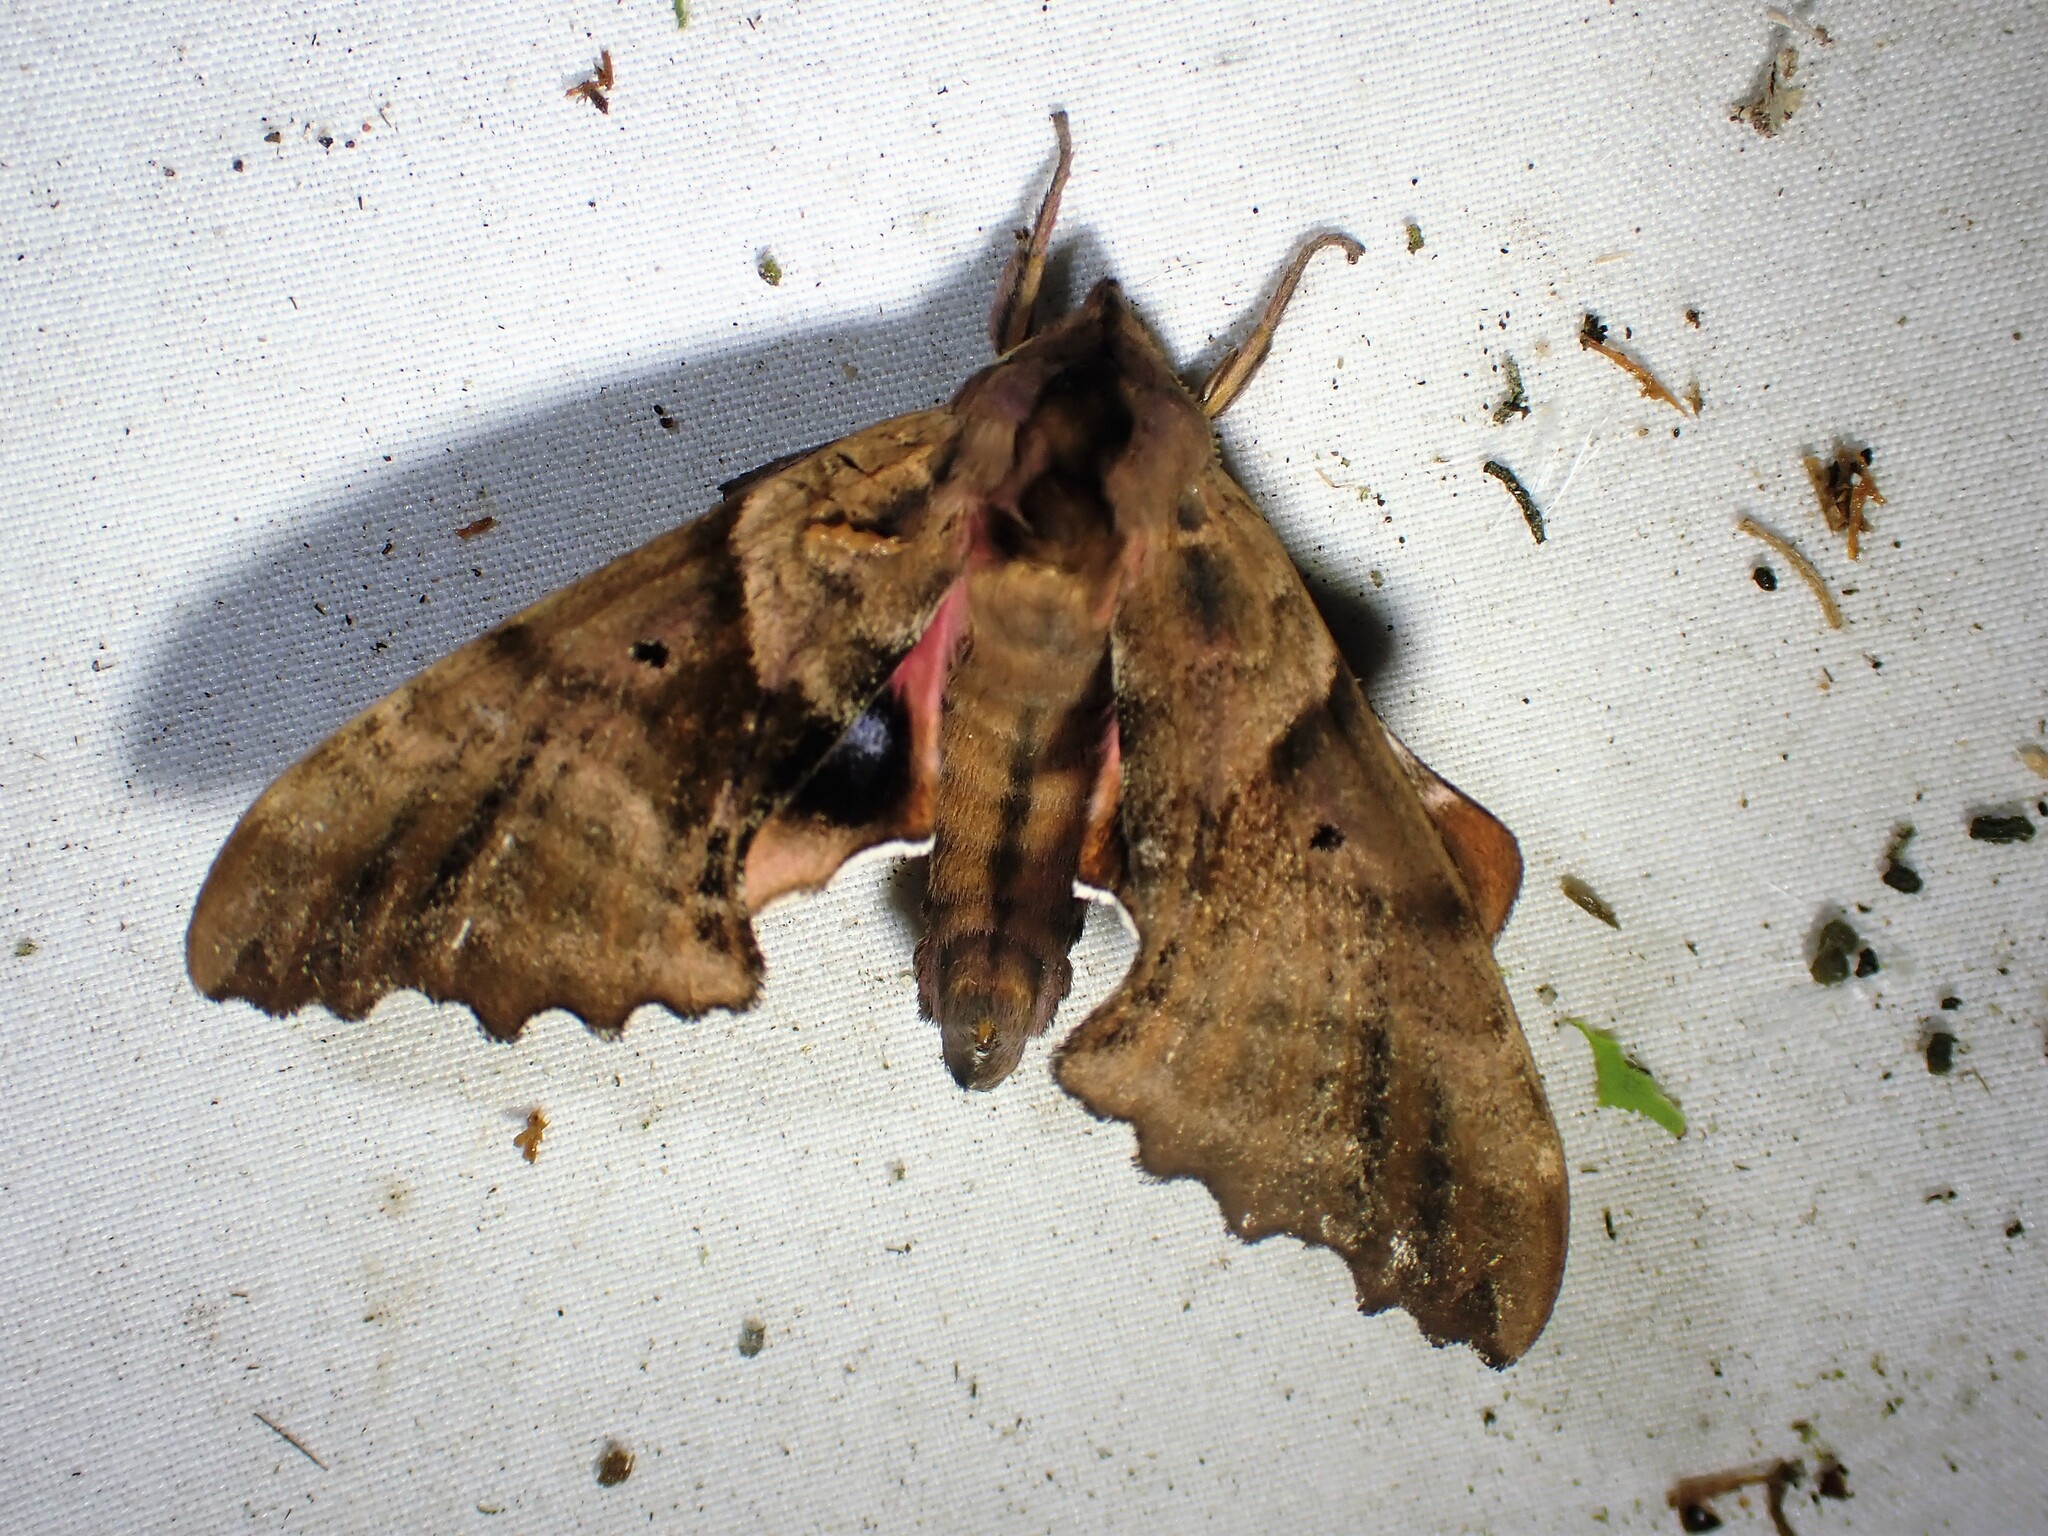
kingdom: Animalia
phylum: Arthropoda
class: Insecta
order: Lepidoptera
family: Sphingidae
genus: Paonias
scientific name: Paonias excaecata
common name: Blind-eyed sphinx
